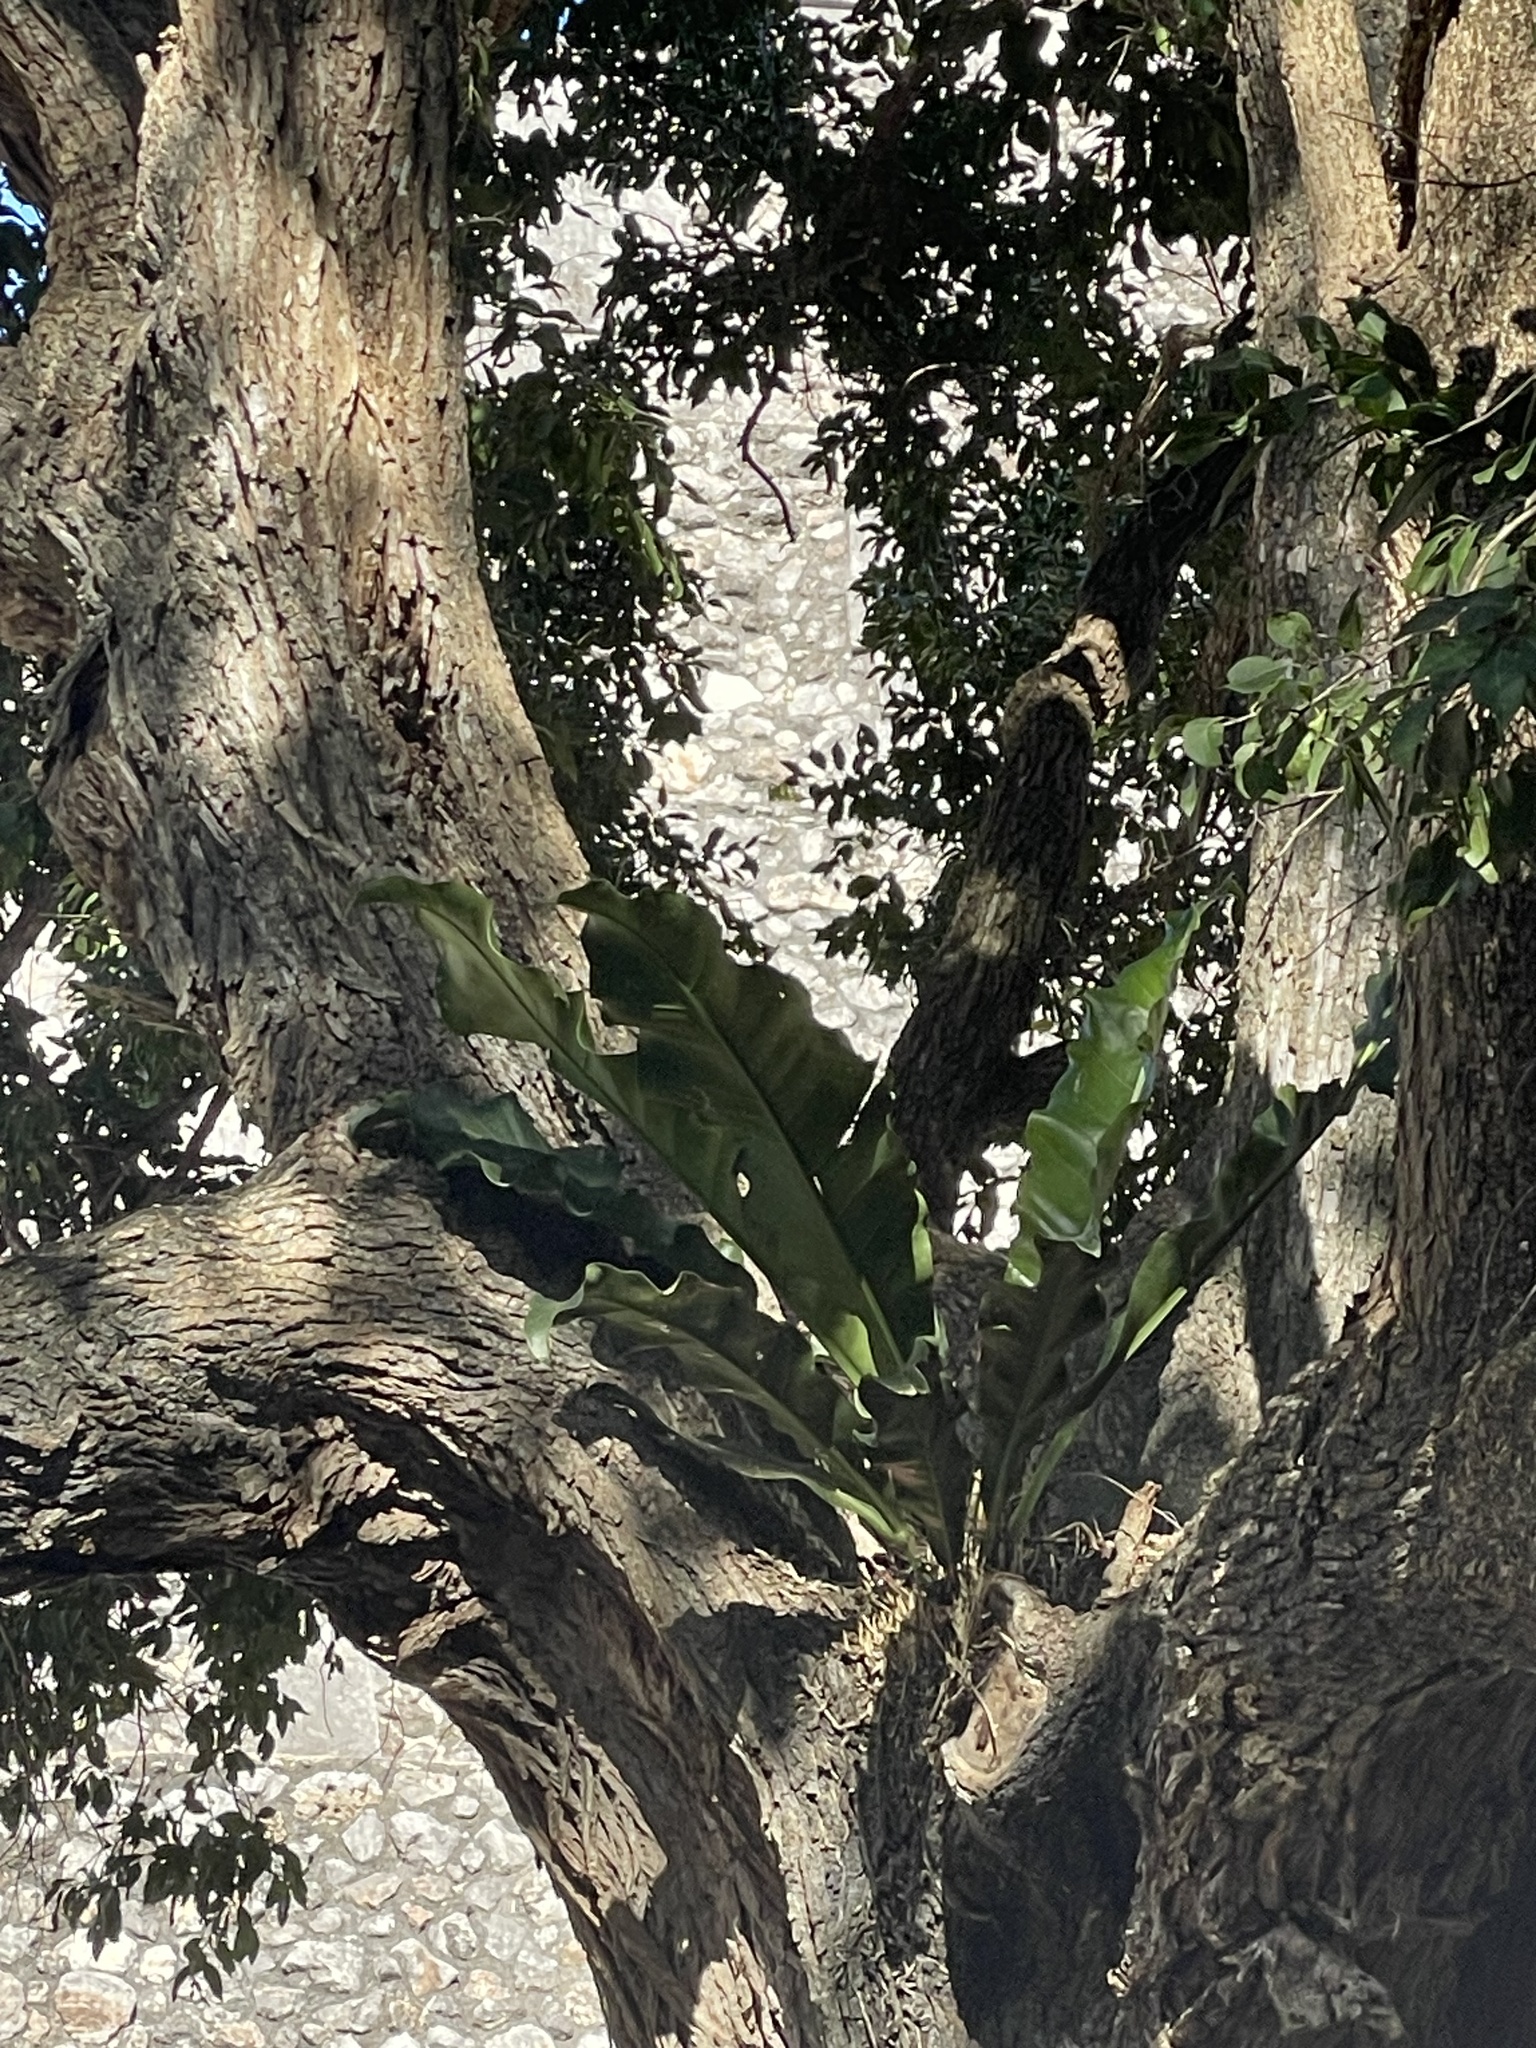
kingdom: Plantae
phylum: Tracheophyta
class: Liliopsida
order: Alismatales
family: Araceae
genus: Anthurium
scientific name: Anthurium schlechtendalii
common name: Laceleaf
